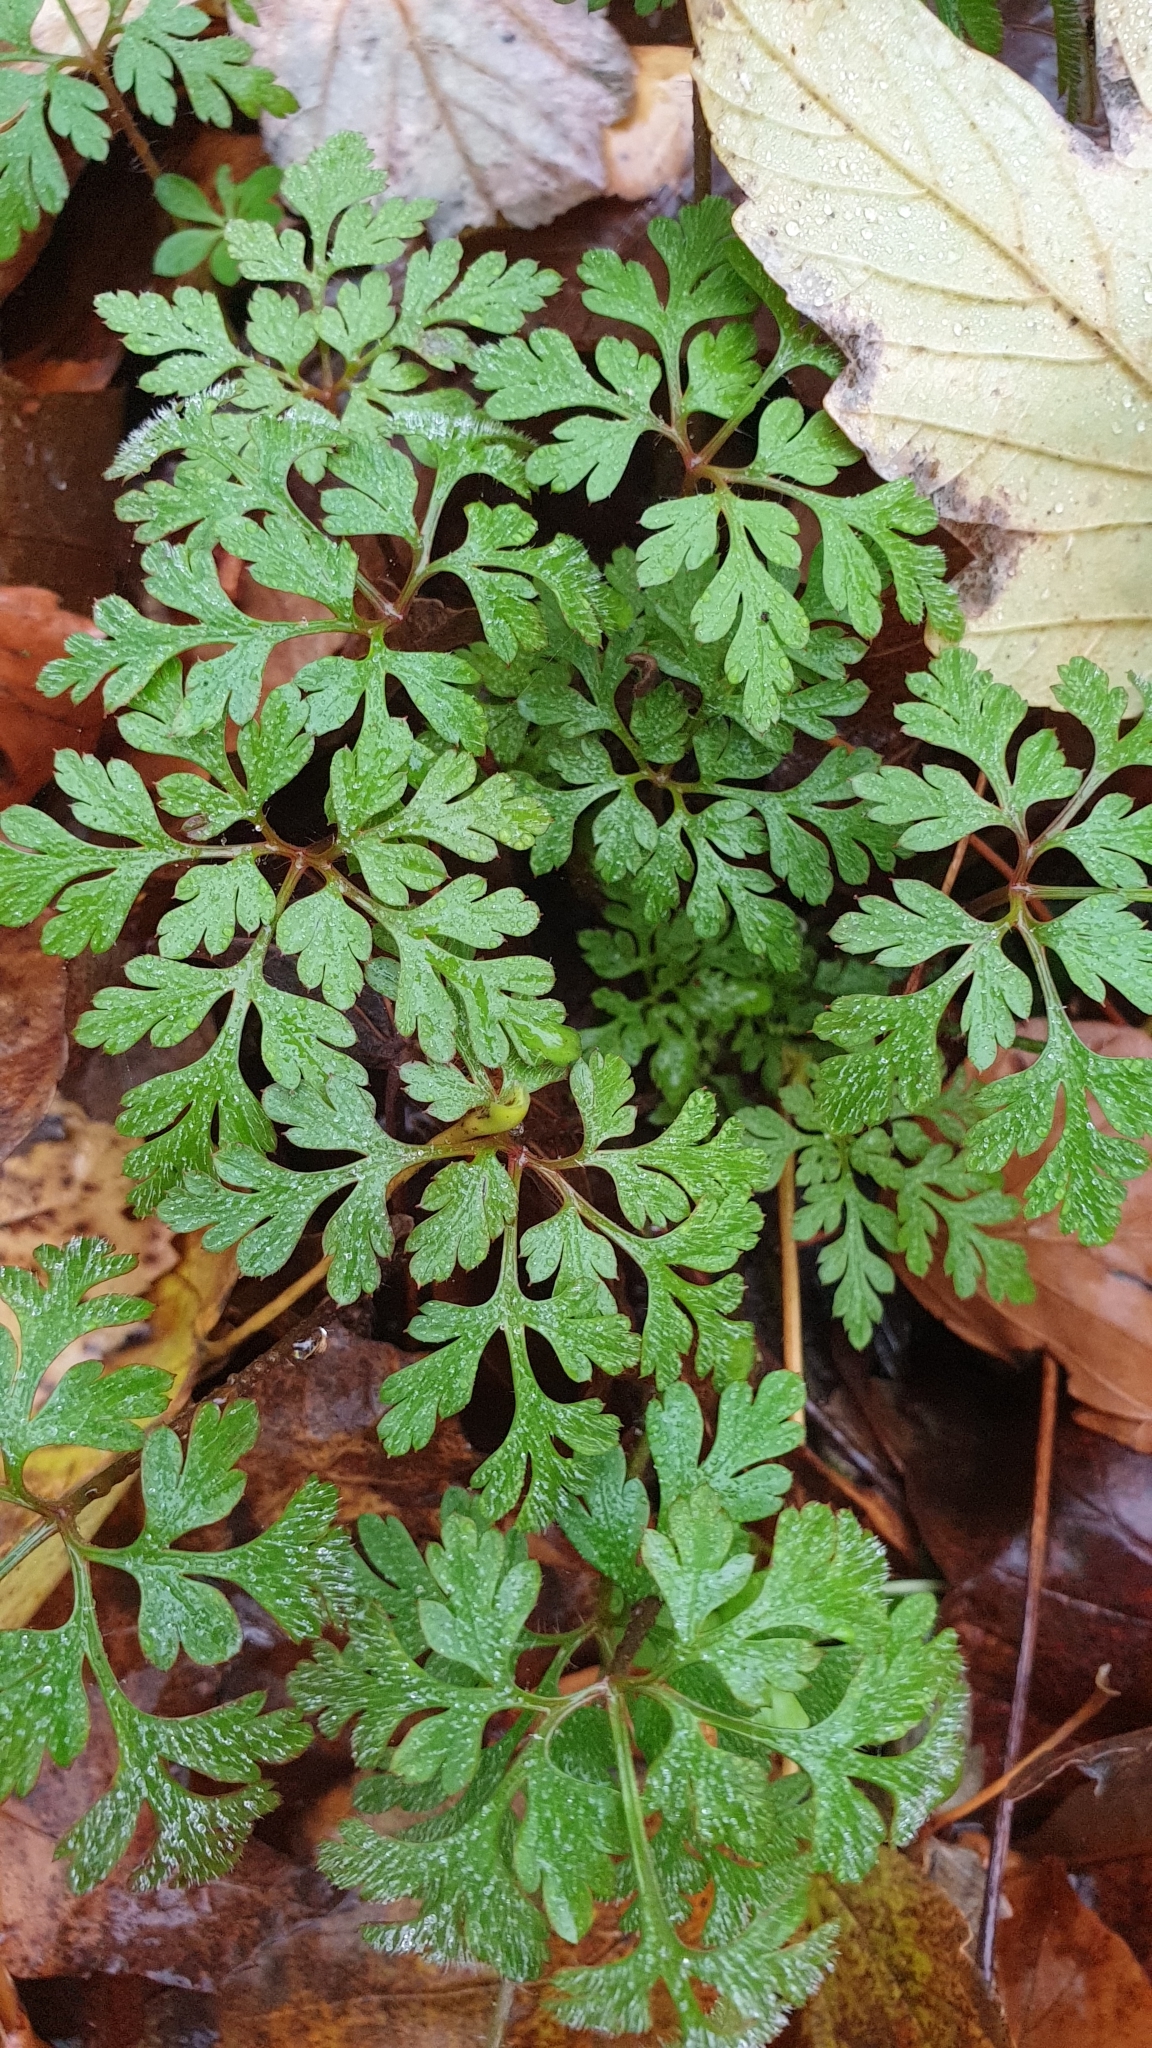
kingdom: Plantae
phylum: Tracheophyta
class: Magnoliopsida
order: Geraniales
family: Geraniaceae
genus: Geranium
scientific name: Geranium robertianum
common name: Herb-robert
